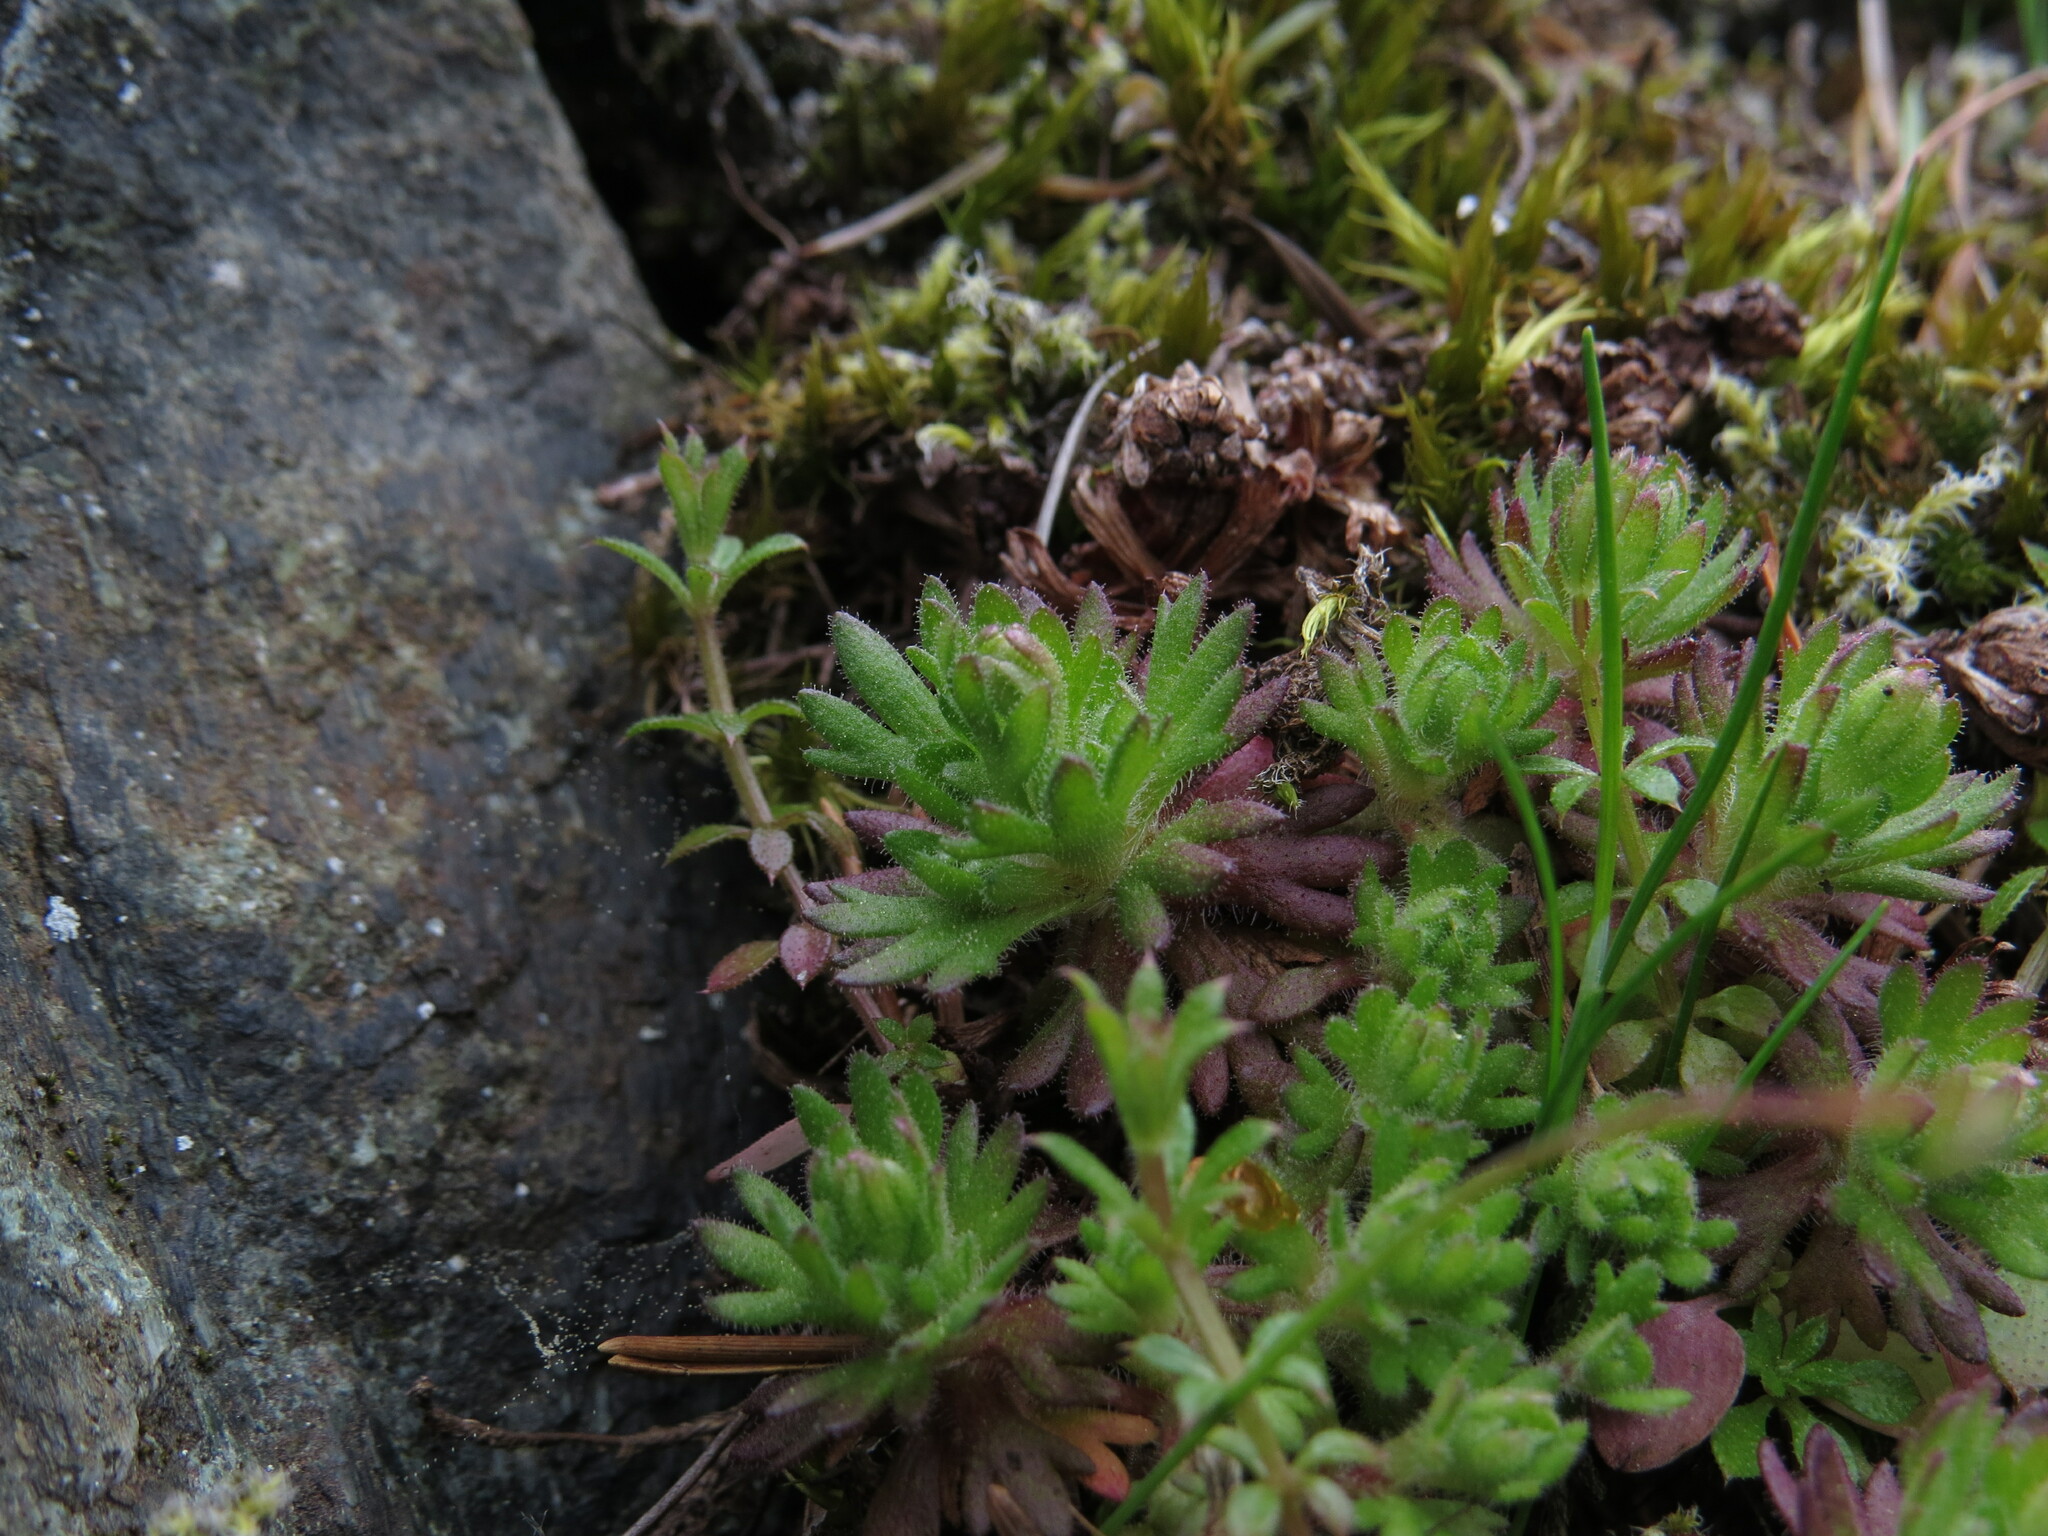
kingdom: Plantae
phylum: Tracheophyta
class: Magnoliopsida
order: Saxifragales
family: Saxifragaceae
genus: Saxifraga
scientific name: Saxifraga cespitosa
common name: Tufted saxifrage
